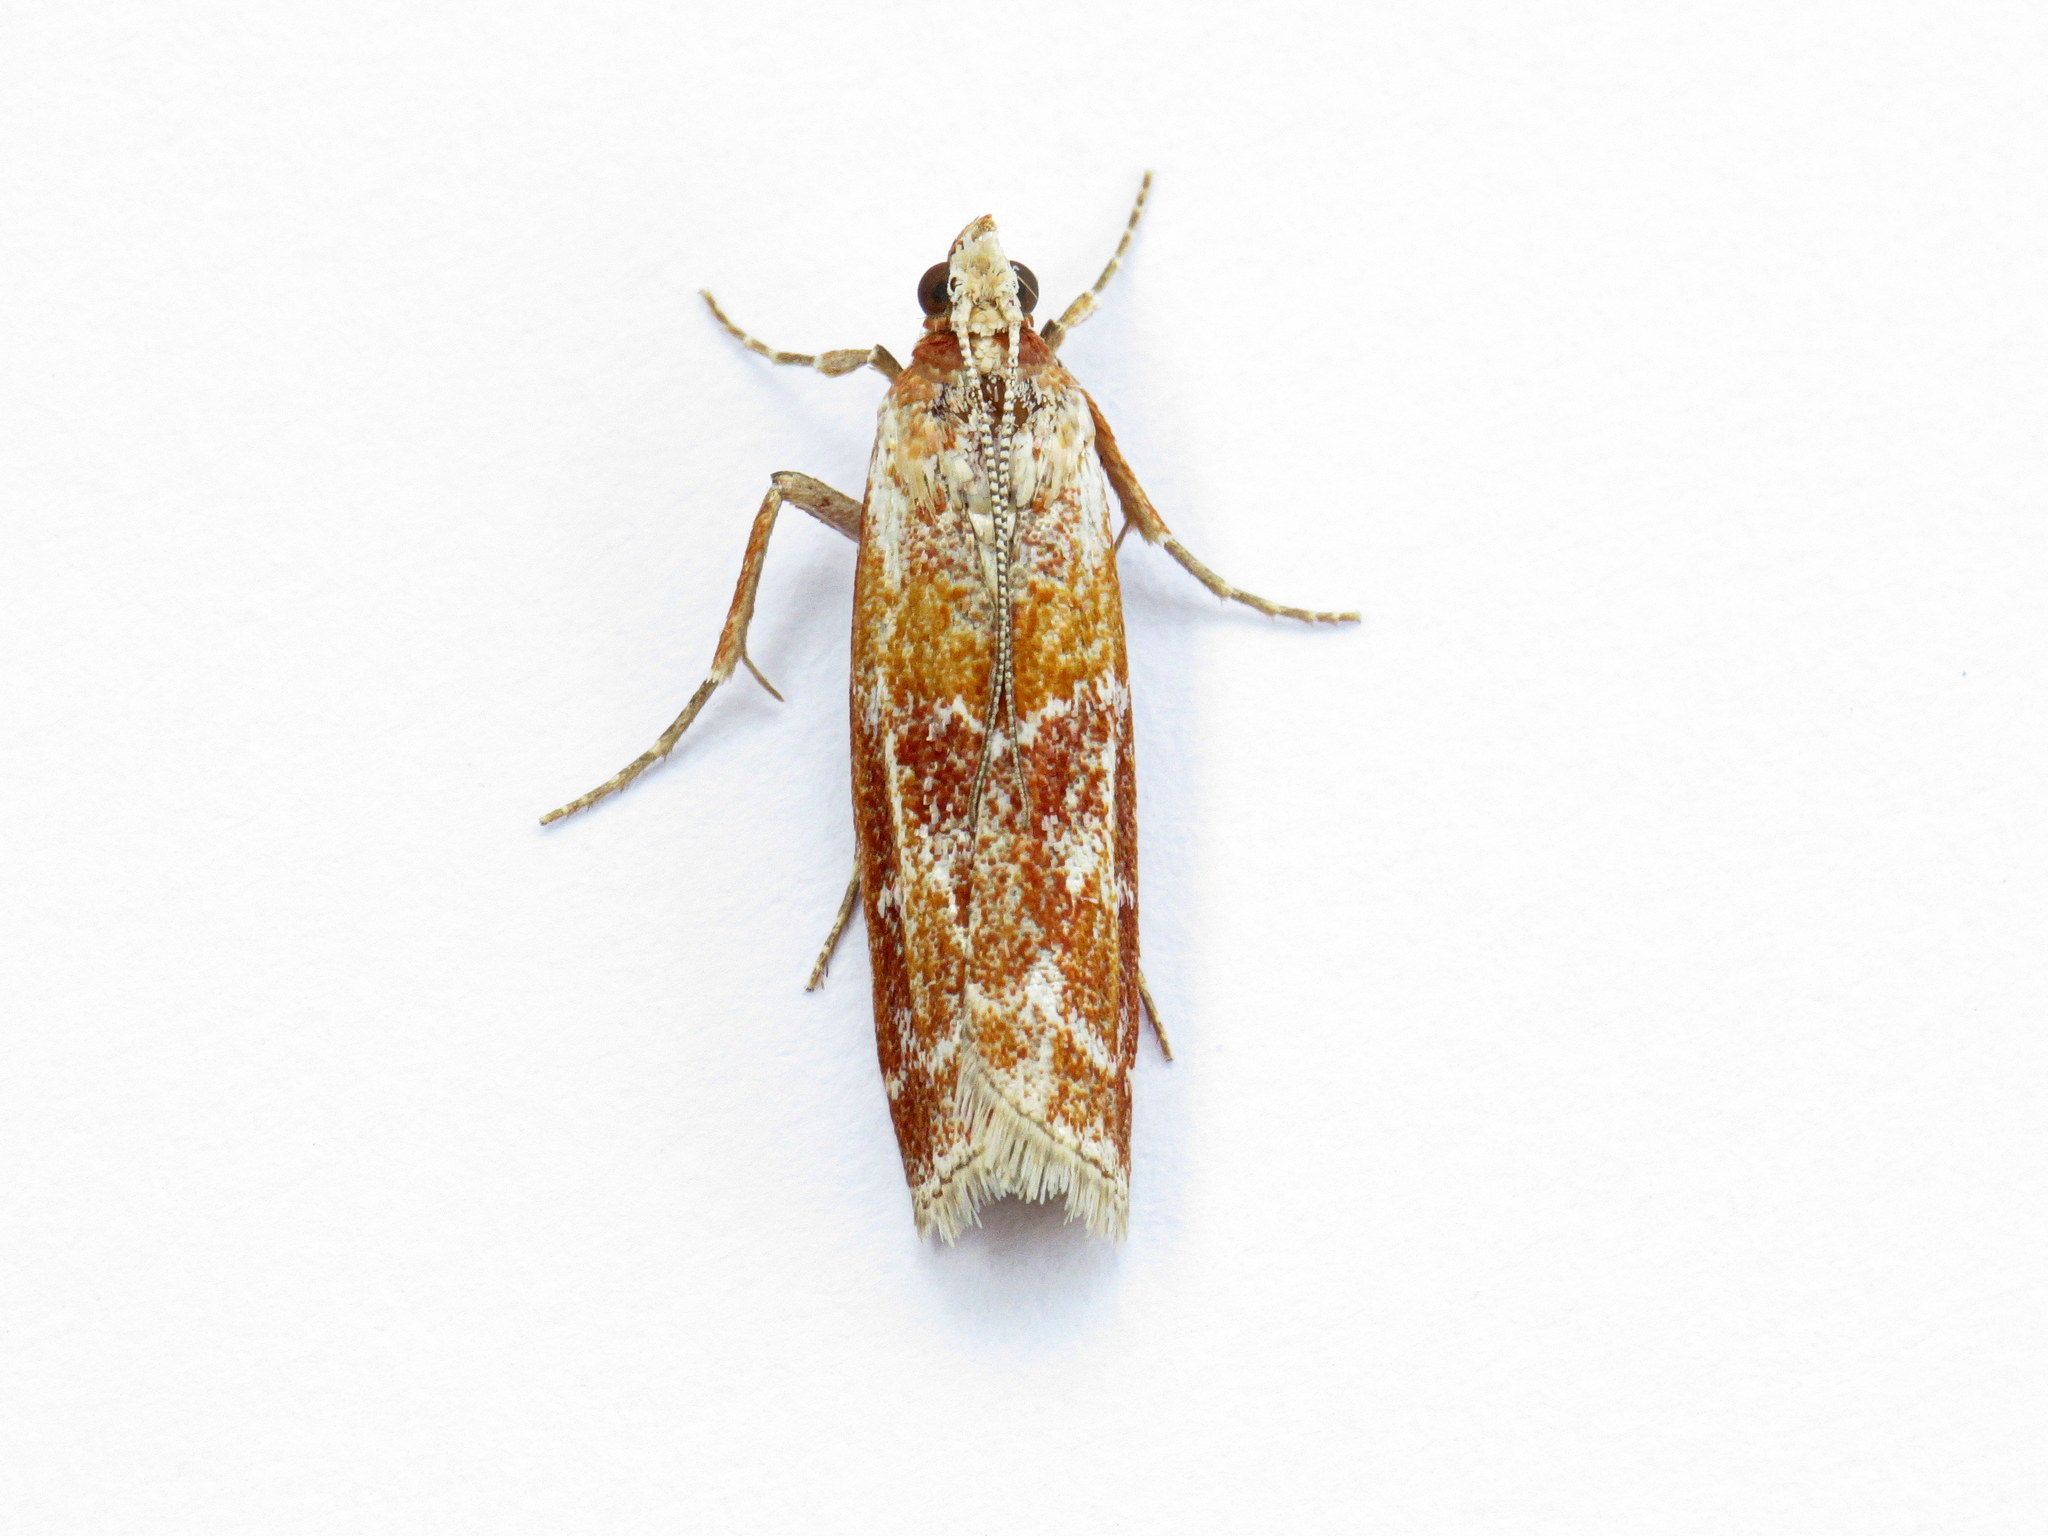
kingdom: Animalia
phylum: Arthropoda
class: Insecta
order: Lepidoptera
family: Pyralidae
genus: Dioryctria
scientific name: Dioryctria disclusa
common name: Rusty pine cone moth
